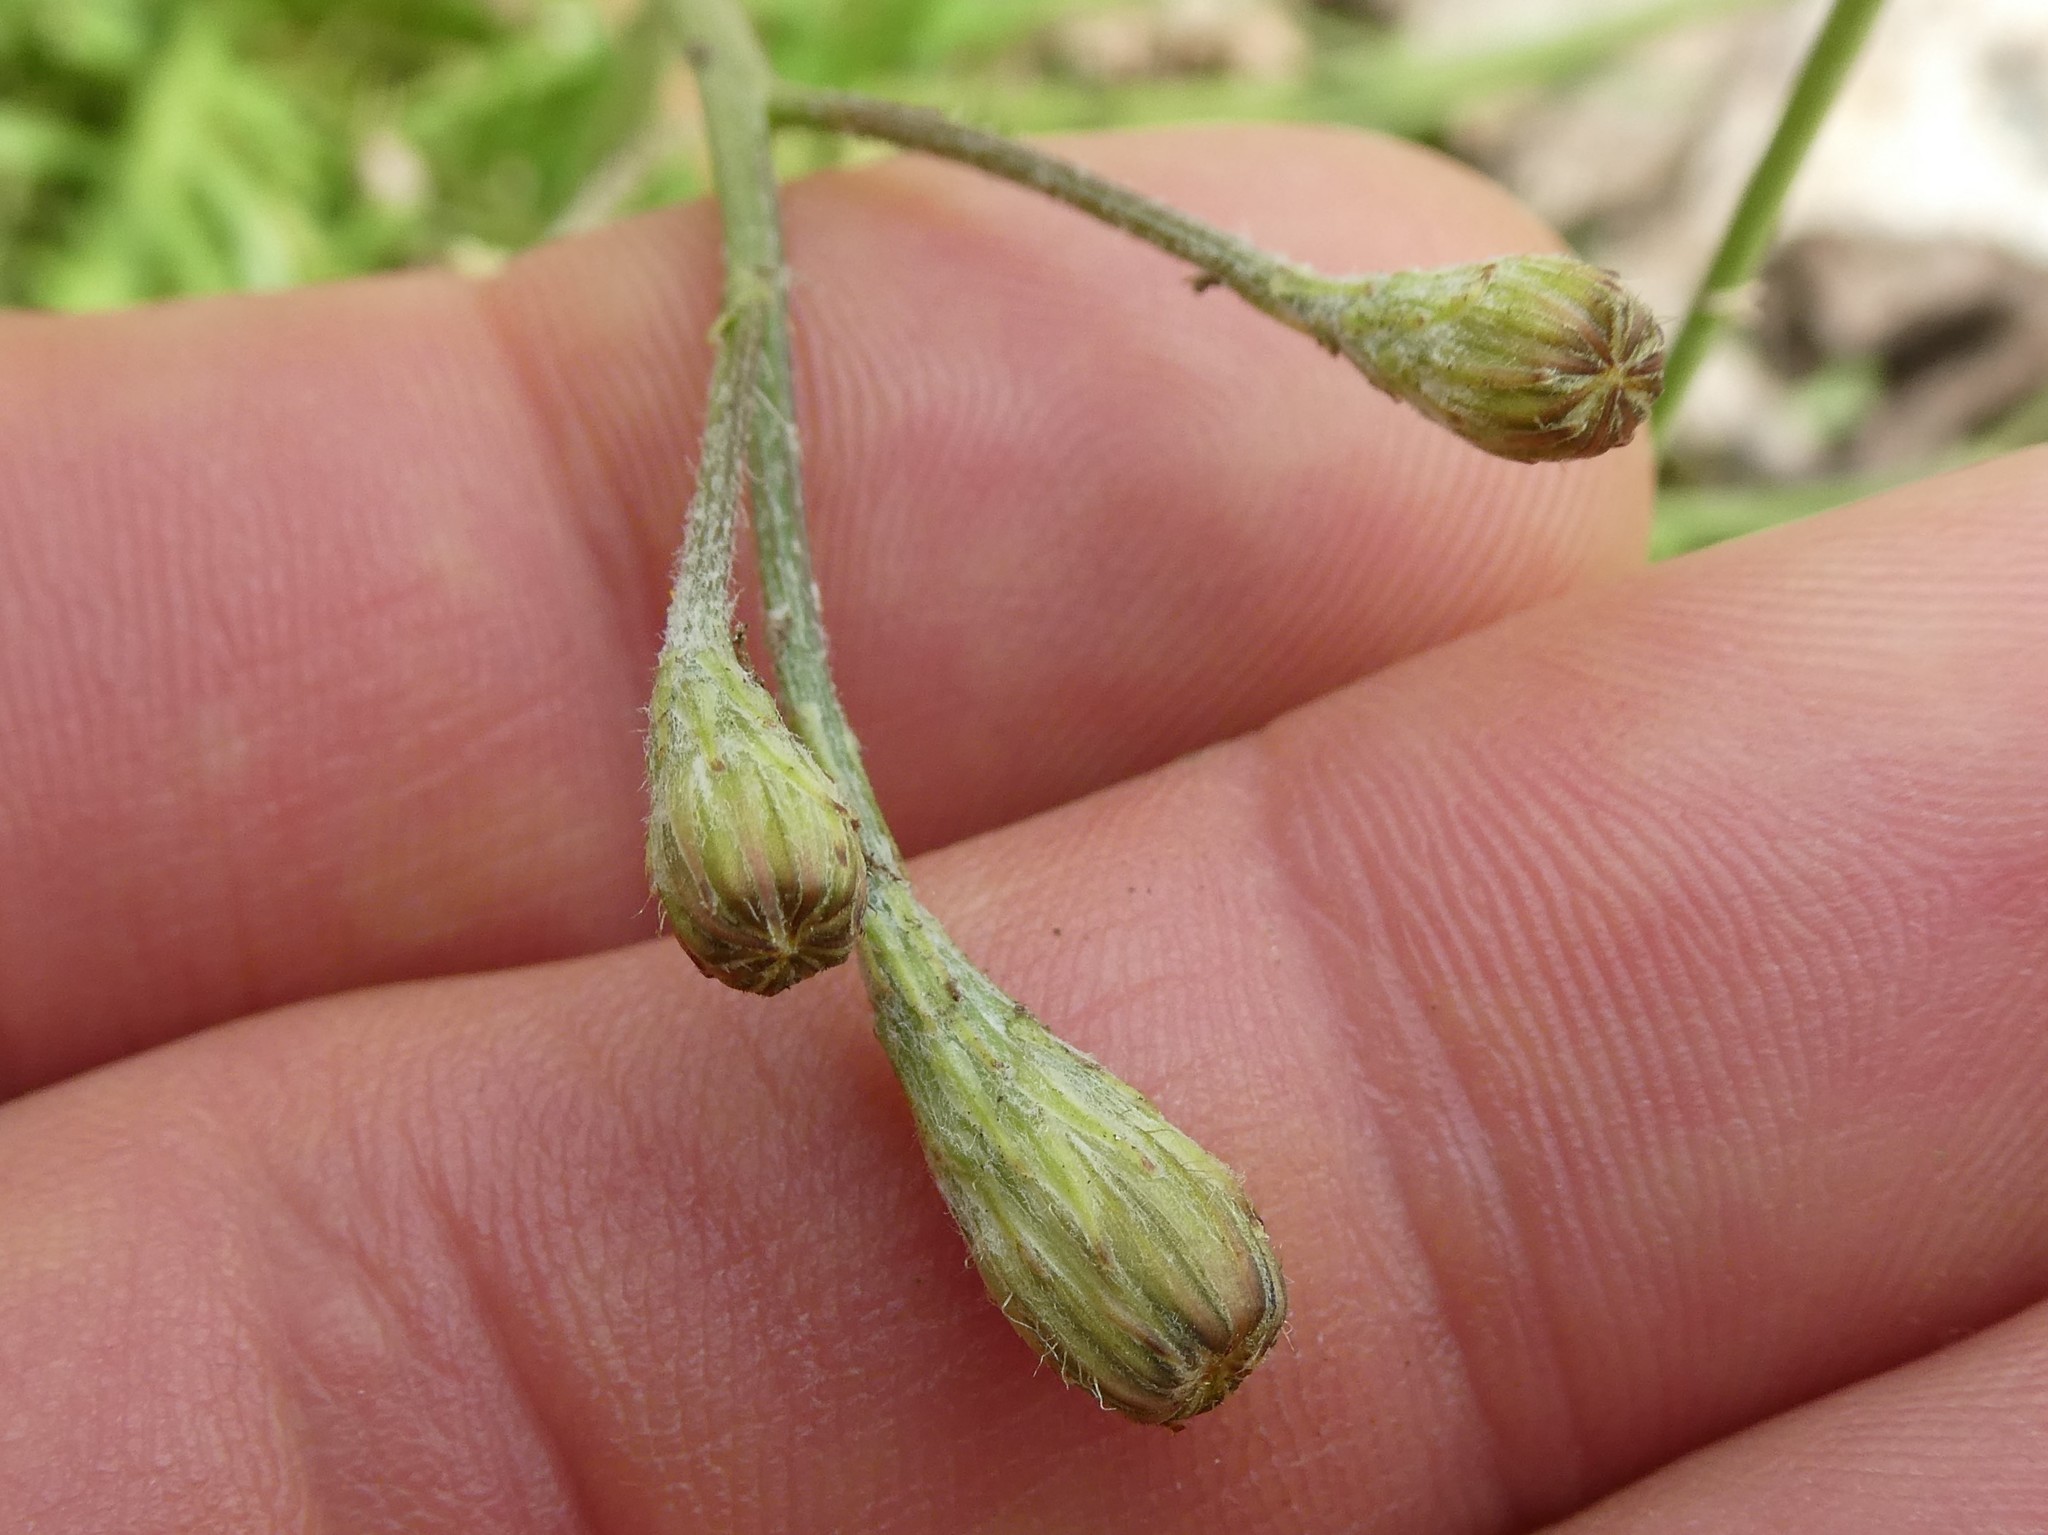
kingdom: Plantae
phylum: Tracheophyta
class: Magnoliopsida
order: Asterales
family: Asteraceae
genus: Scorzoneroides
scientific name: Scorzoneroides autumnalis
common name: Autumn hawkbit
